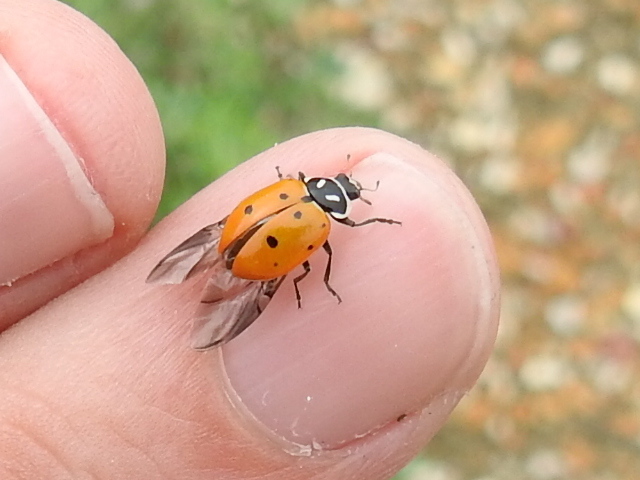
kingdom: Animalia
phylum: Arthropoda
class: Insecta
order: Coleoptera
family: Coccinellidae
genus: Hippodamia
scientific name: Hippodamia convergens
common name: Convergent lady beetle
